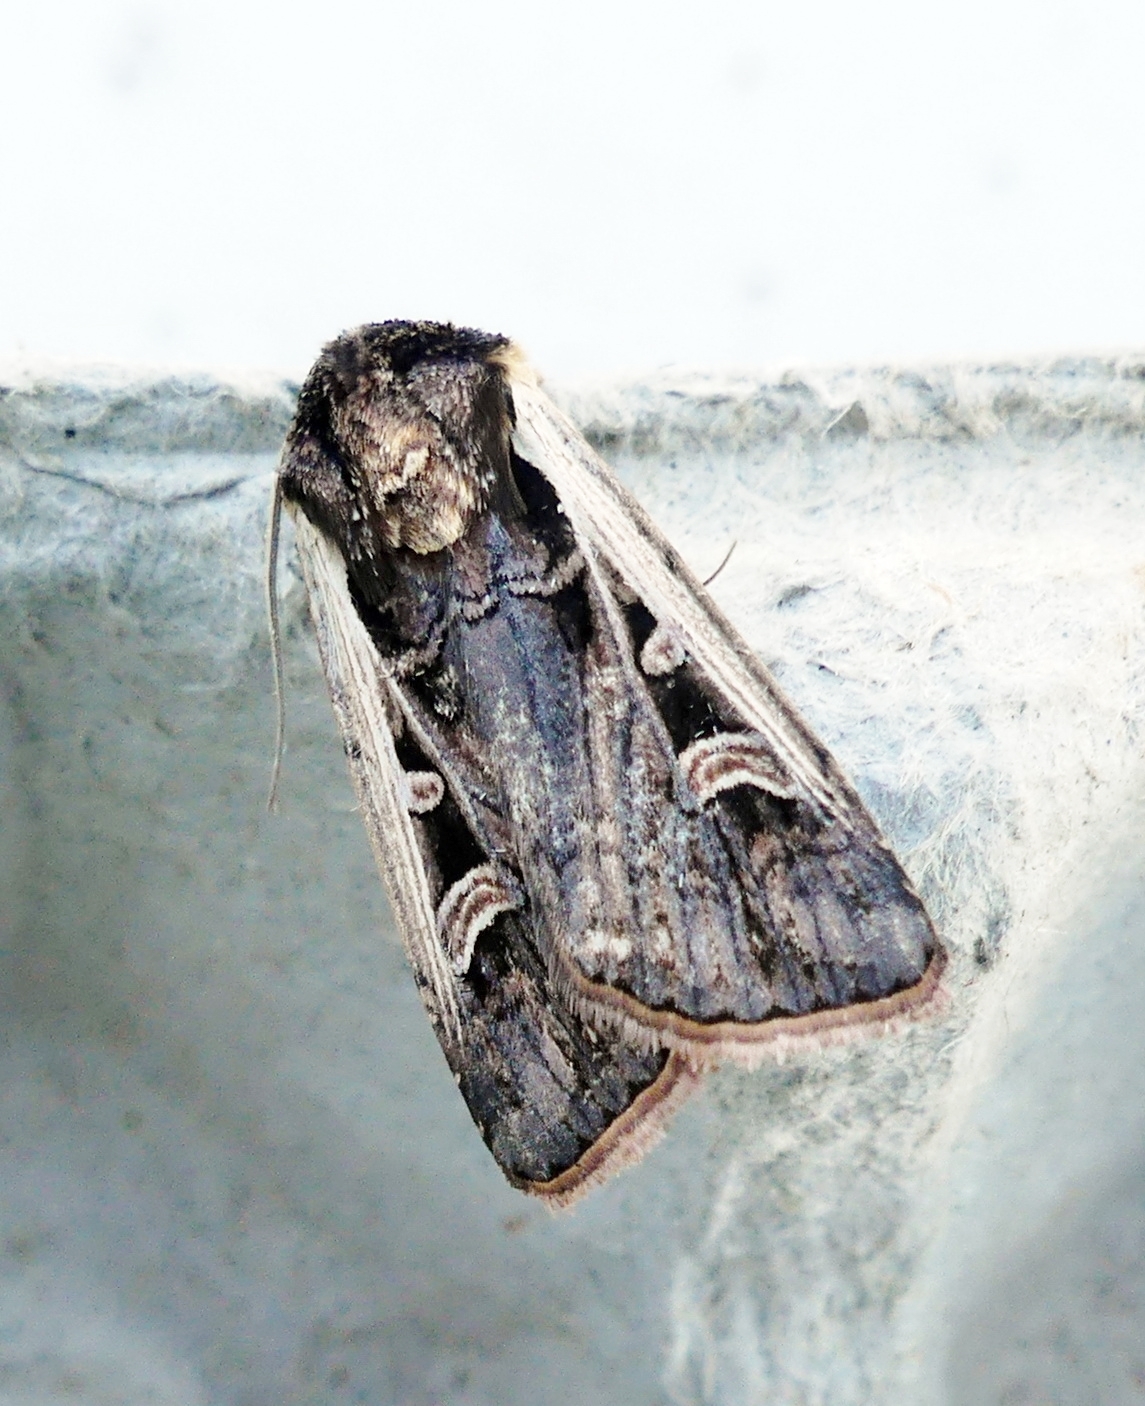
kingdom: Animalia
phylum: Arthropoda
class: Insecta
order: Lepidoptera
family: Noctuidae
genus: Striacosta
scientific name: Striacosta albicosta
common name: Western bean cutworm moth
